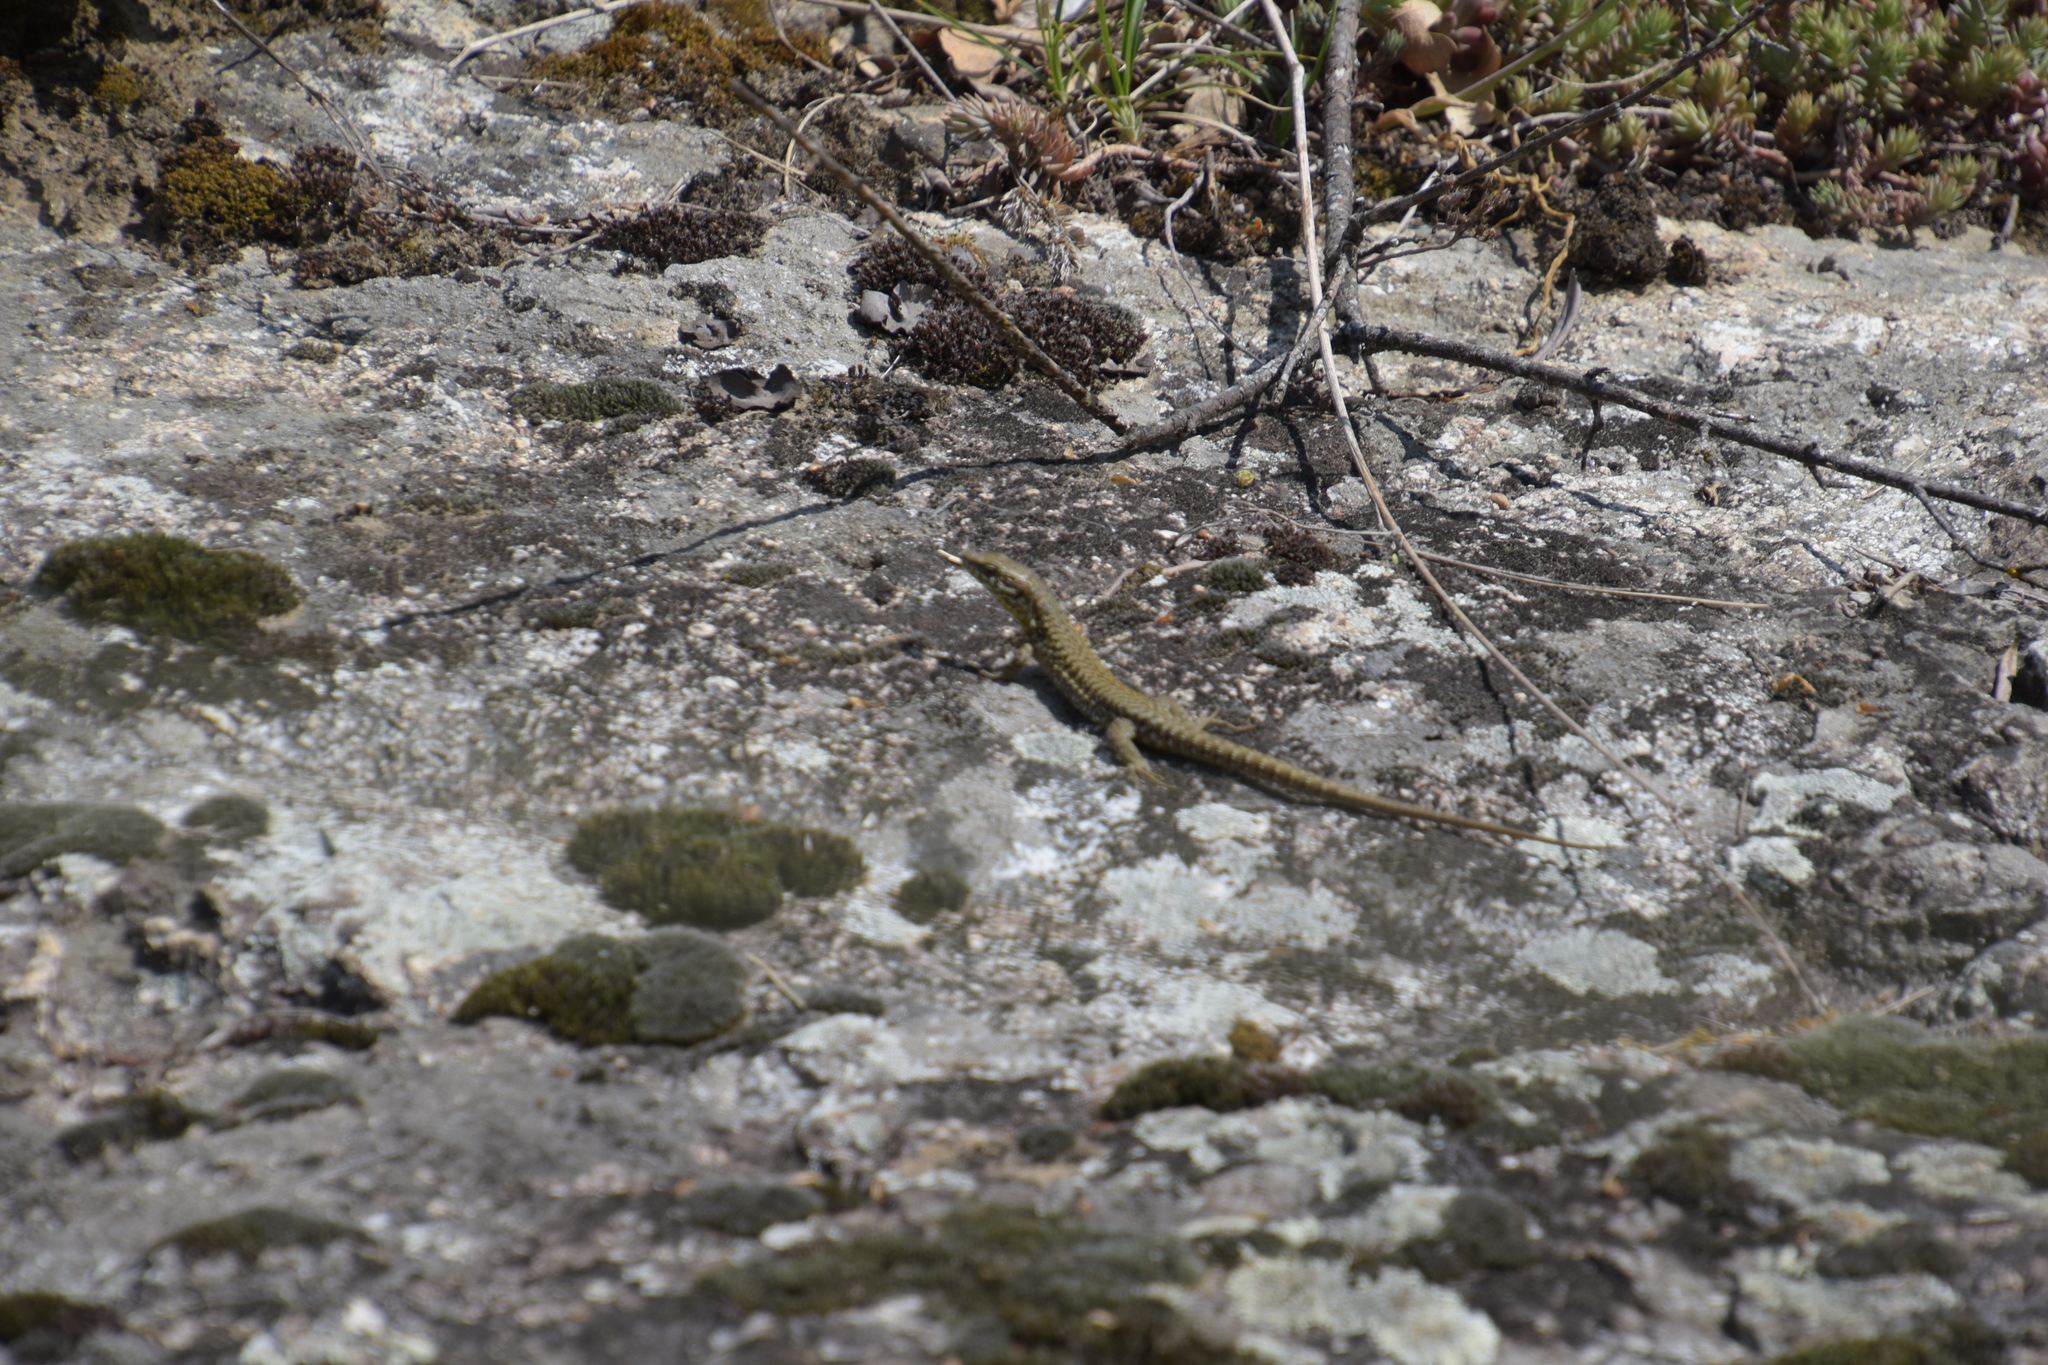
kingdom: Animalia
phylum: Chordata
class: Squamata
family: Lacertidae
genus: Podarcis
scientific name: Podarcis muralis
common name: Common wall lizard
